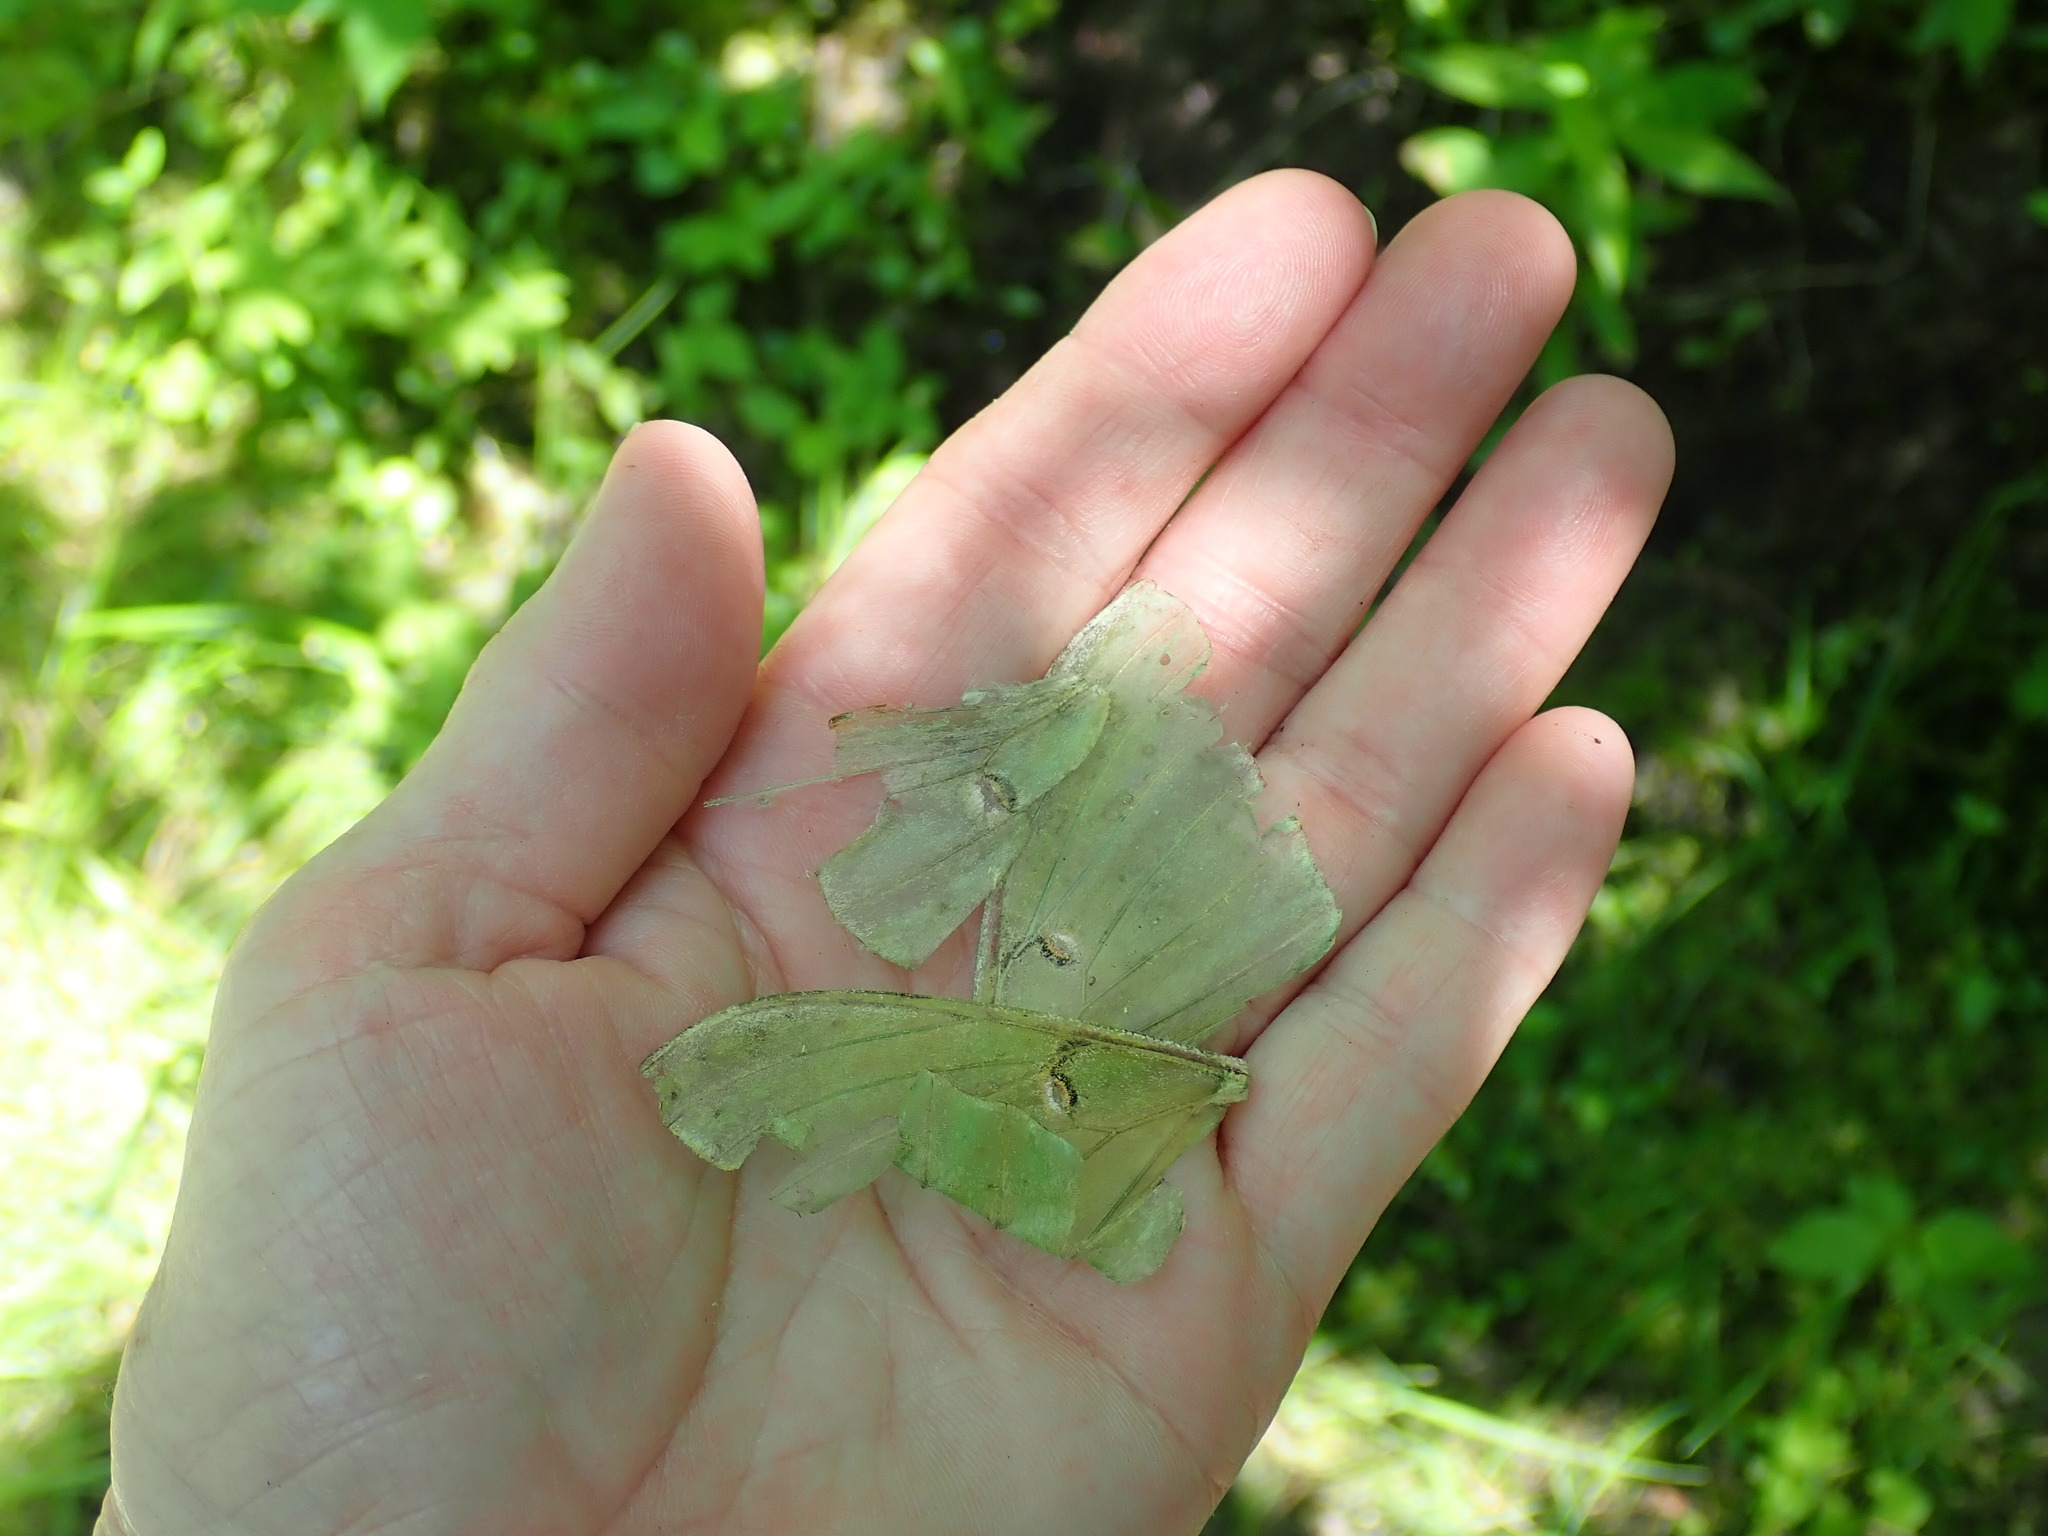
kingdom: Animalia
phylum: Arthropoda
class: Insecta
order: Lepidoptera
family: Saturniidae
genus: Actias
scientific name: Actias luna
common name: Luna moth
